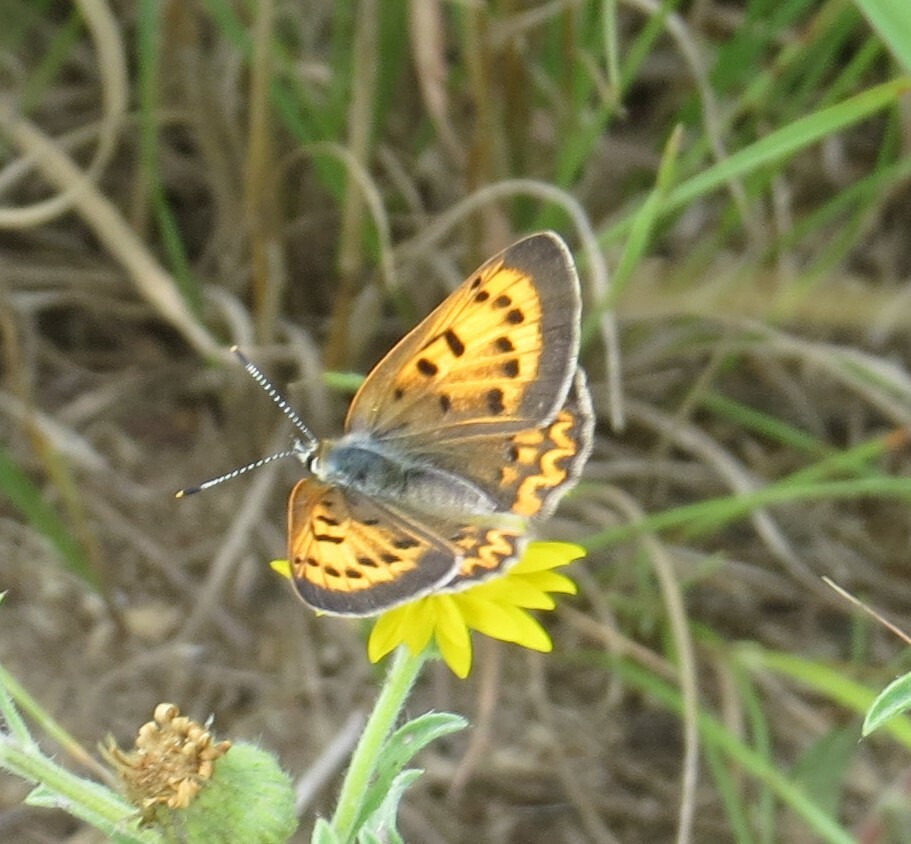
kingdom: Animalia
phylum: Arthropoda
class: Insecta
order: Lepidoptera
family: Lycaenidae
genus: Tharsalea
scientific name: Tharsalea helloides
